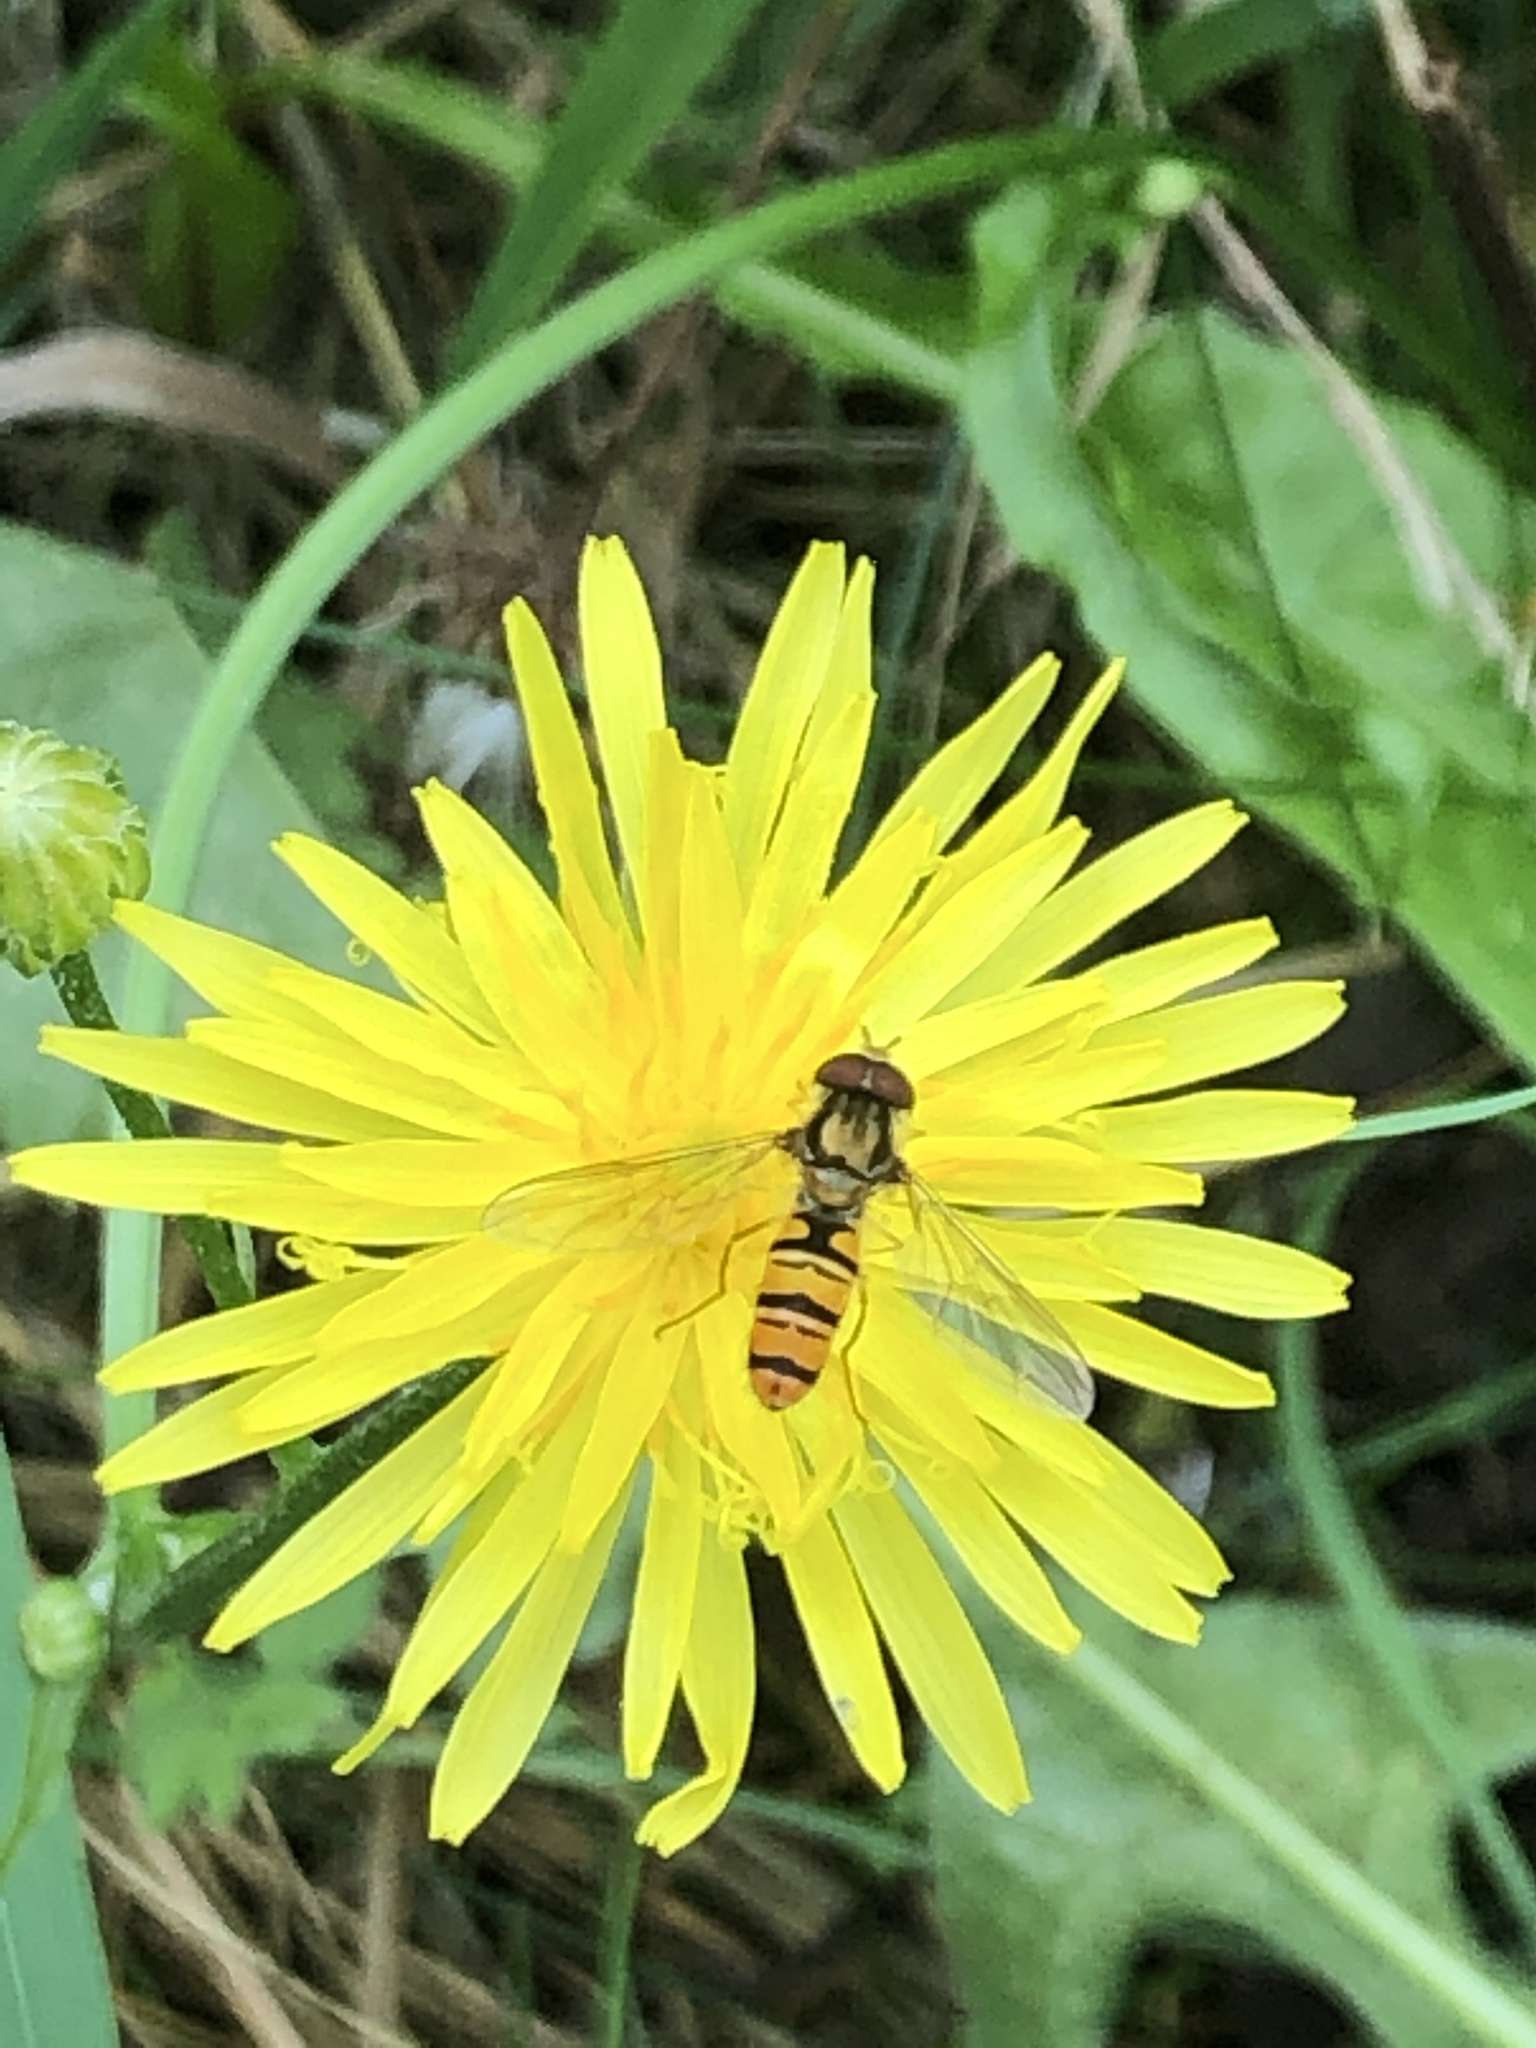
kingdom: Animalia
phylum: Arthropoda
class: Insecta
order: Diptera
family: Syrphidae
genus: Episyrphus
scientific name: Episyrphus balteatus
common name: Marmalade hoverfly
